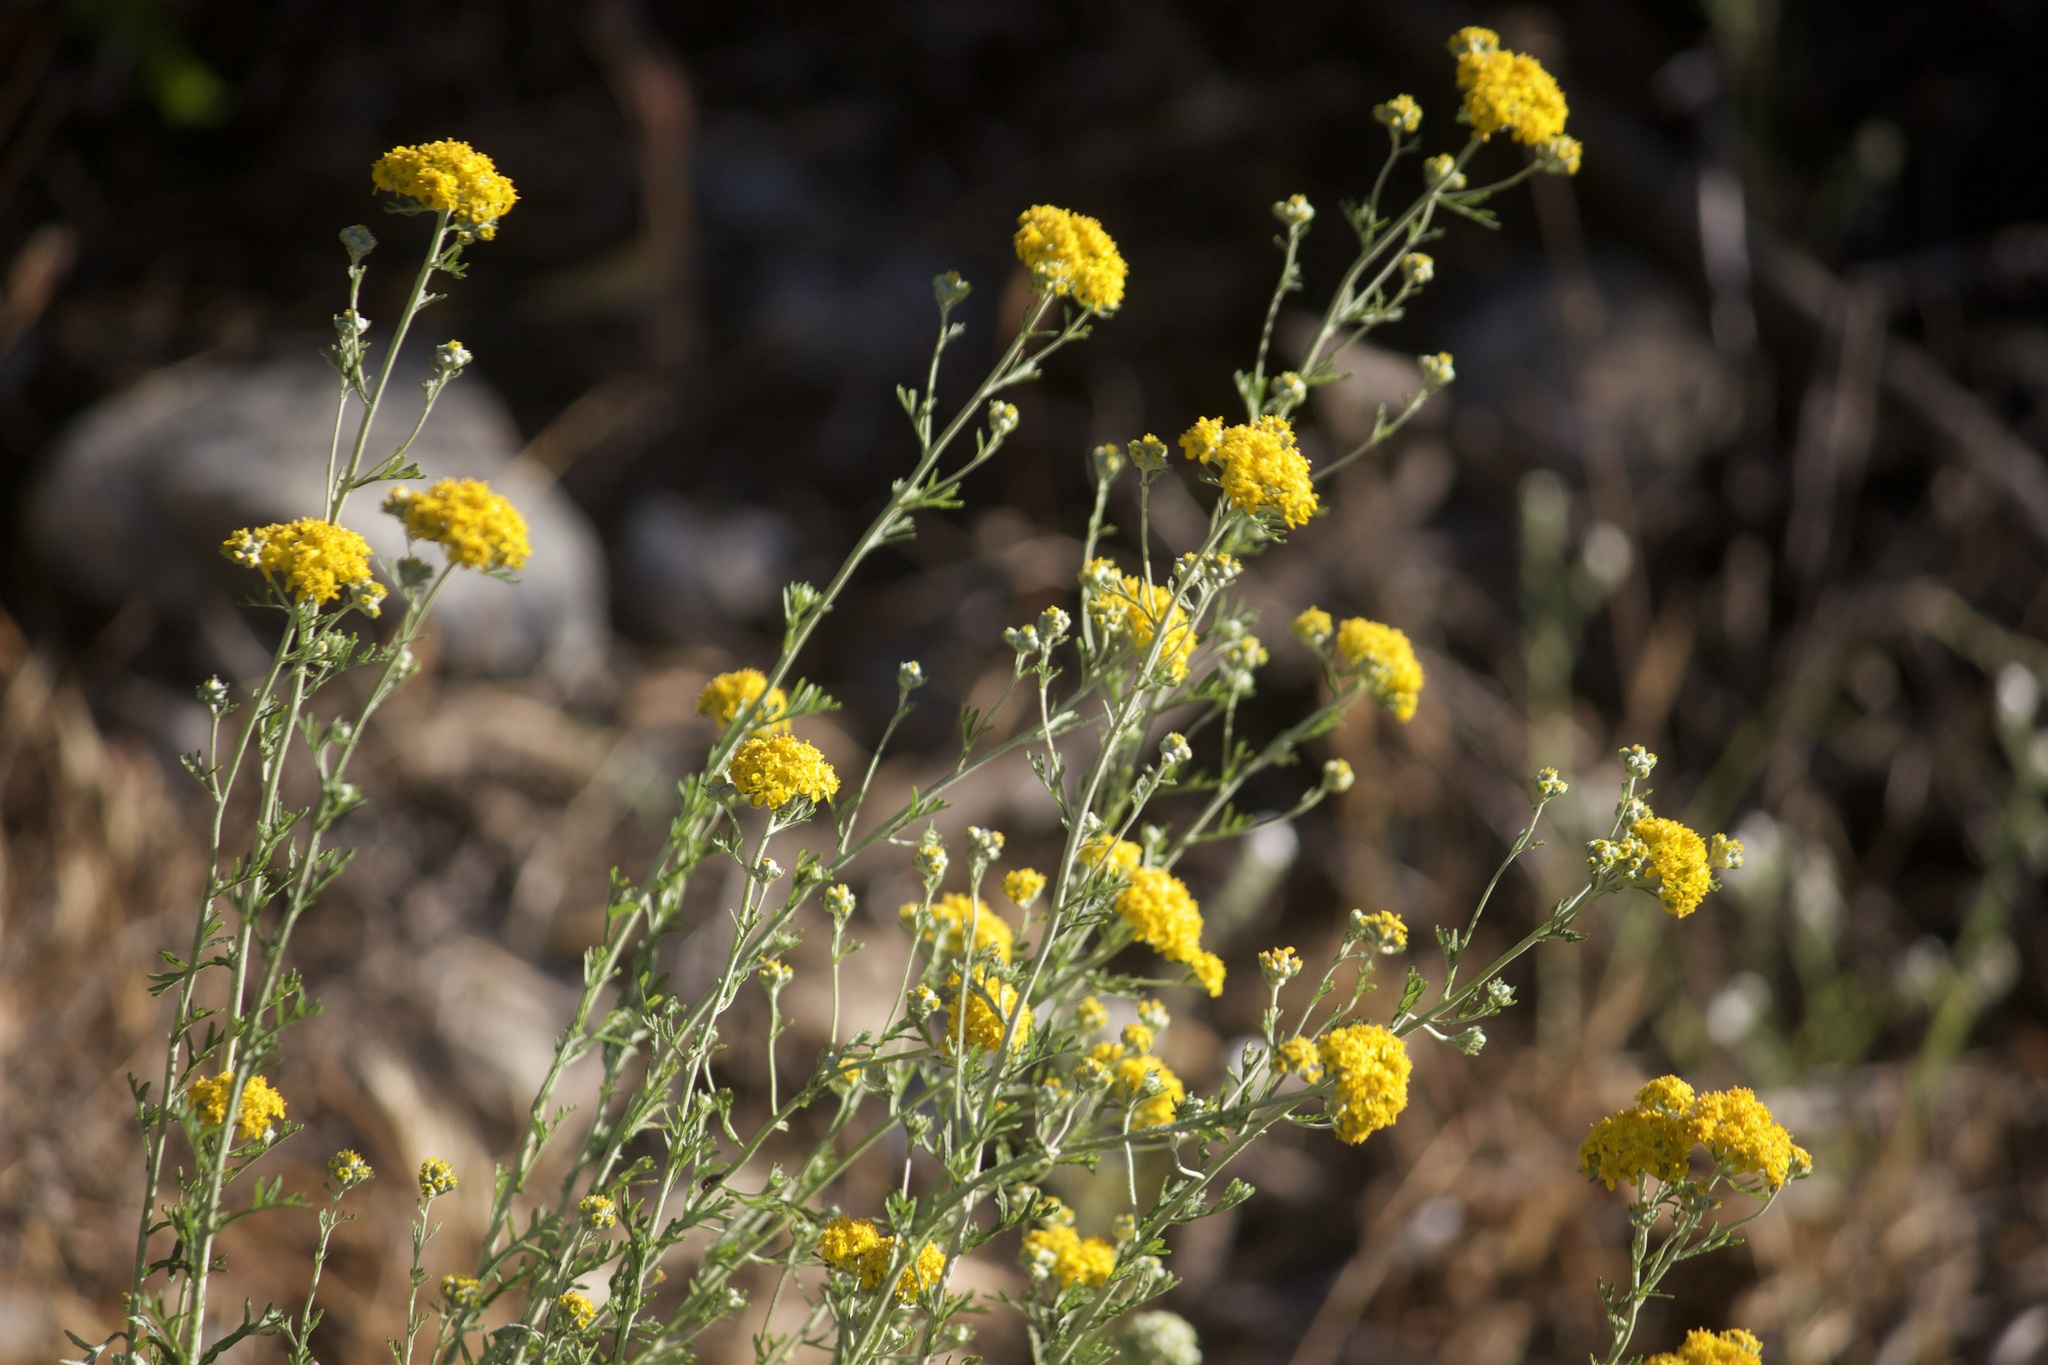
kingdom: Plantae
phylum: Tracheophyta
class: Magnoliopsida
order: Asterales
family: Asteraceae
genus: Eriophyllum
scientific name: Eriophyllum confertiflorum
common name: Golden-yarrow
